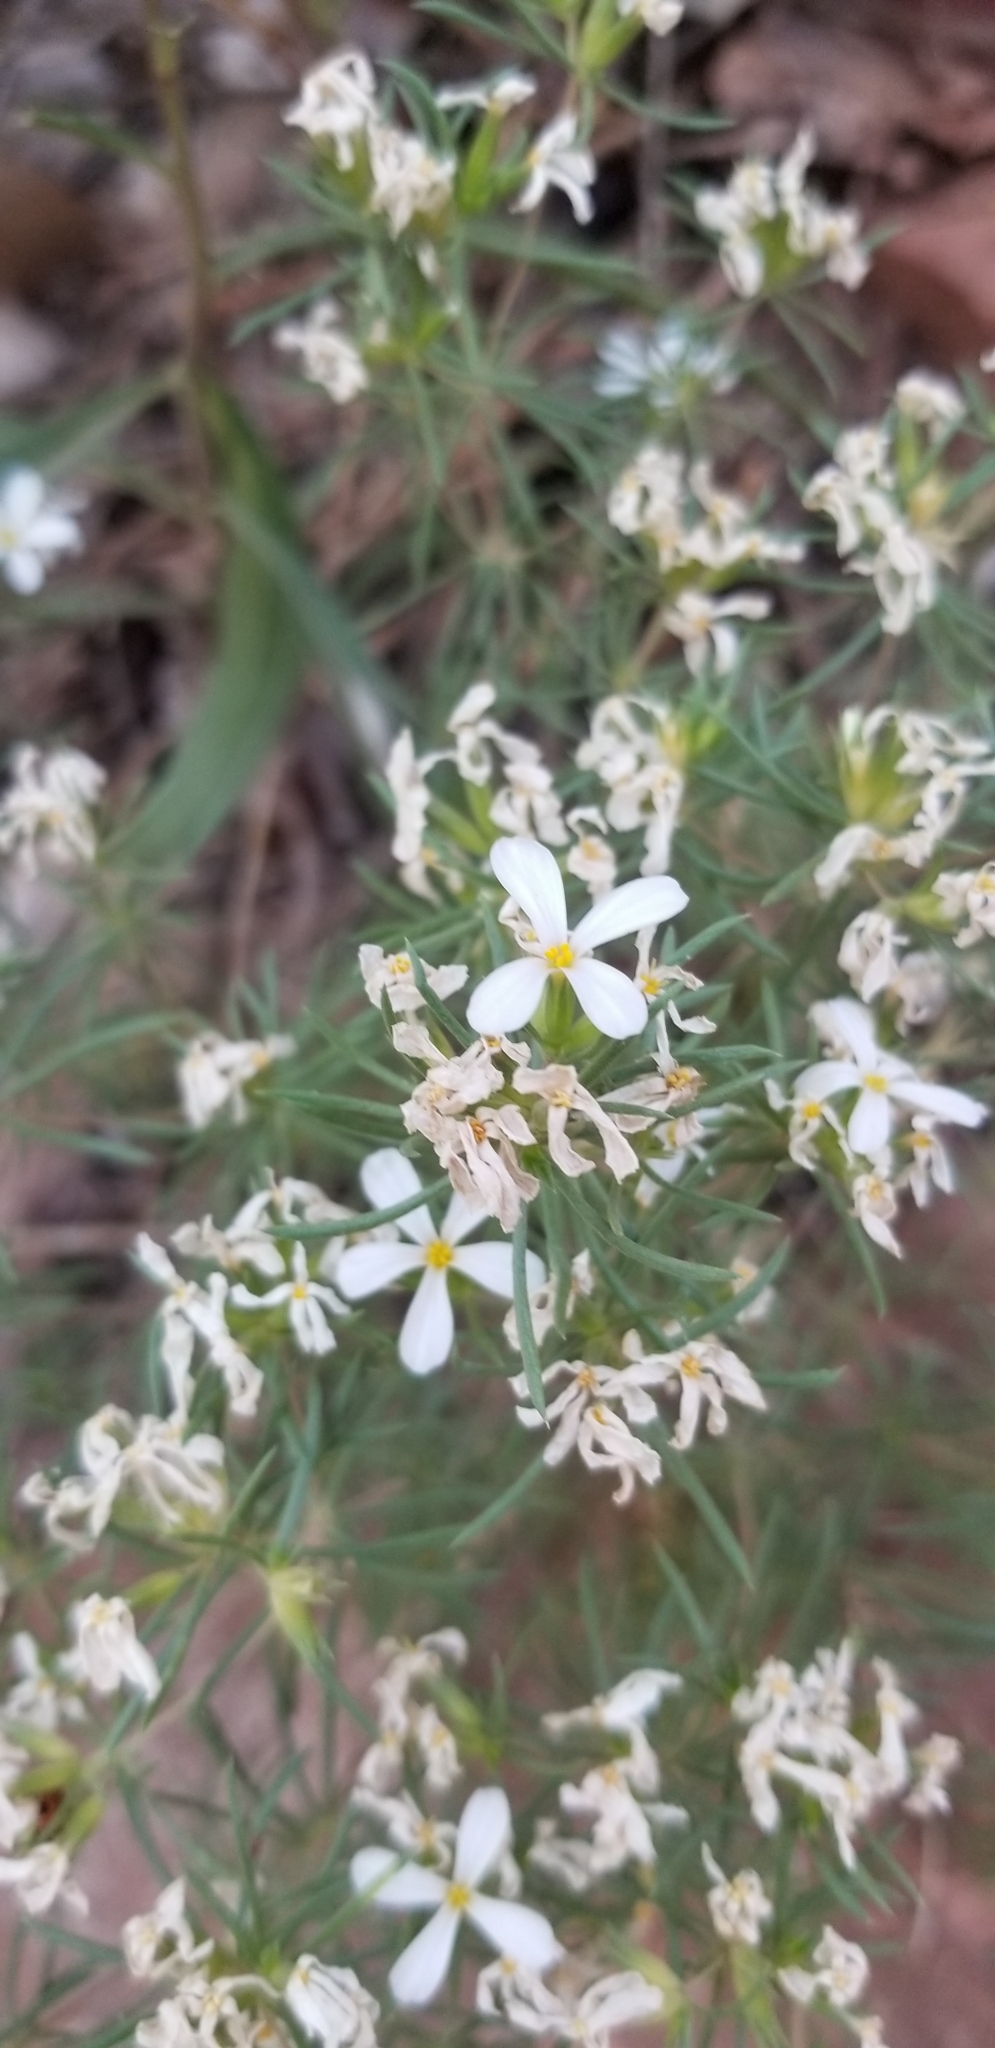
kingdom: Plantae
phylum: Tracheophyta
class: Magnoliopsida
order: Ericales
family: Polemoniaceae
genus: Leptosiphon
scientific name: Leptosiphon nuttallii
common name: Nuttall's linanthus
